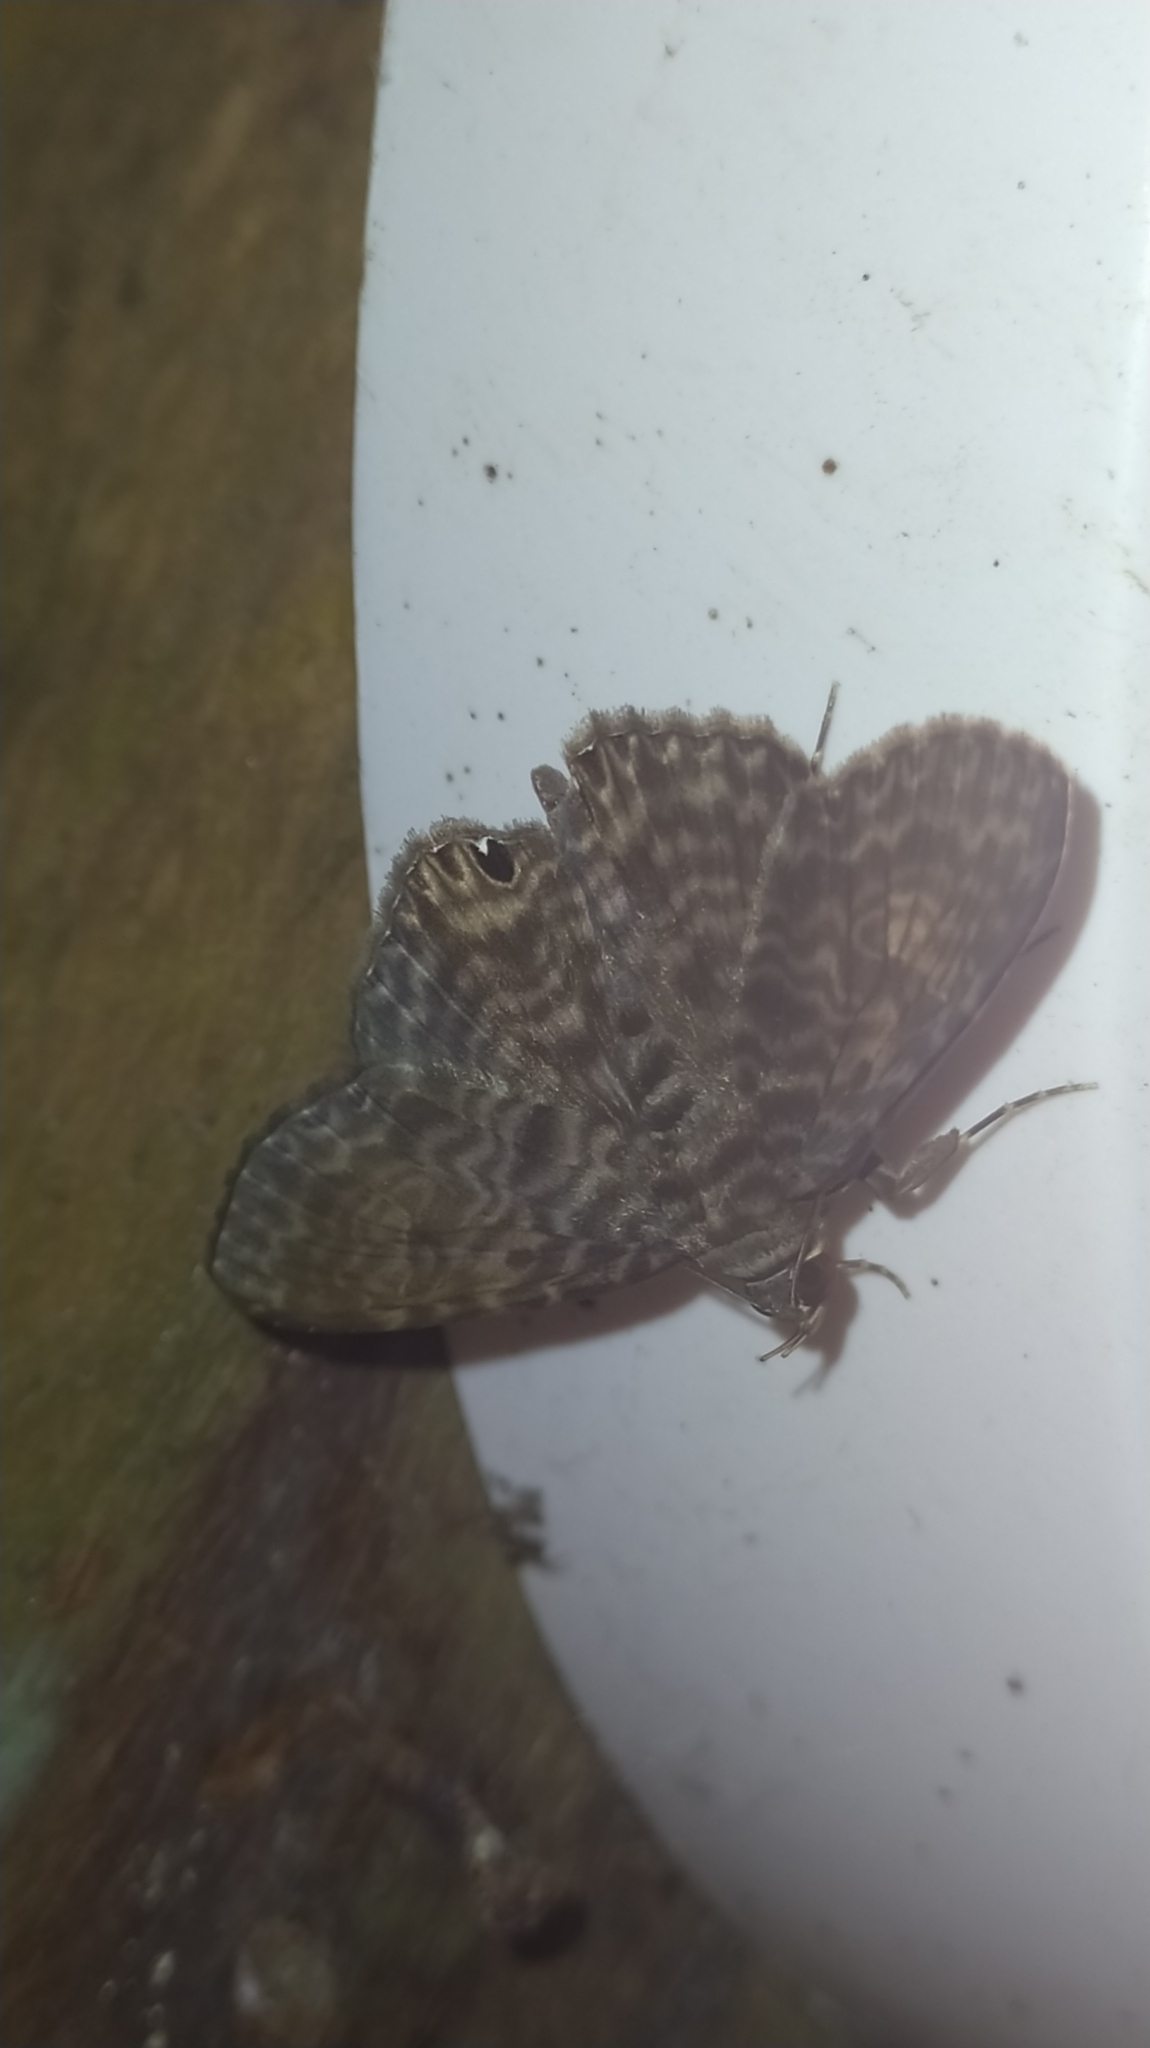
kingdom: Animalia
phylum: Arthropoda
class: Insecta
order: Lepidoptera
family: Erebidae
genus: Dialithis
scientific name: Dialithis gemmifera
